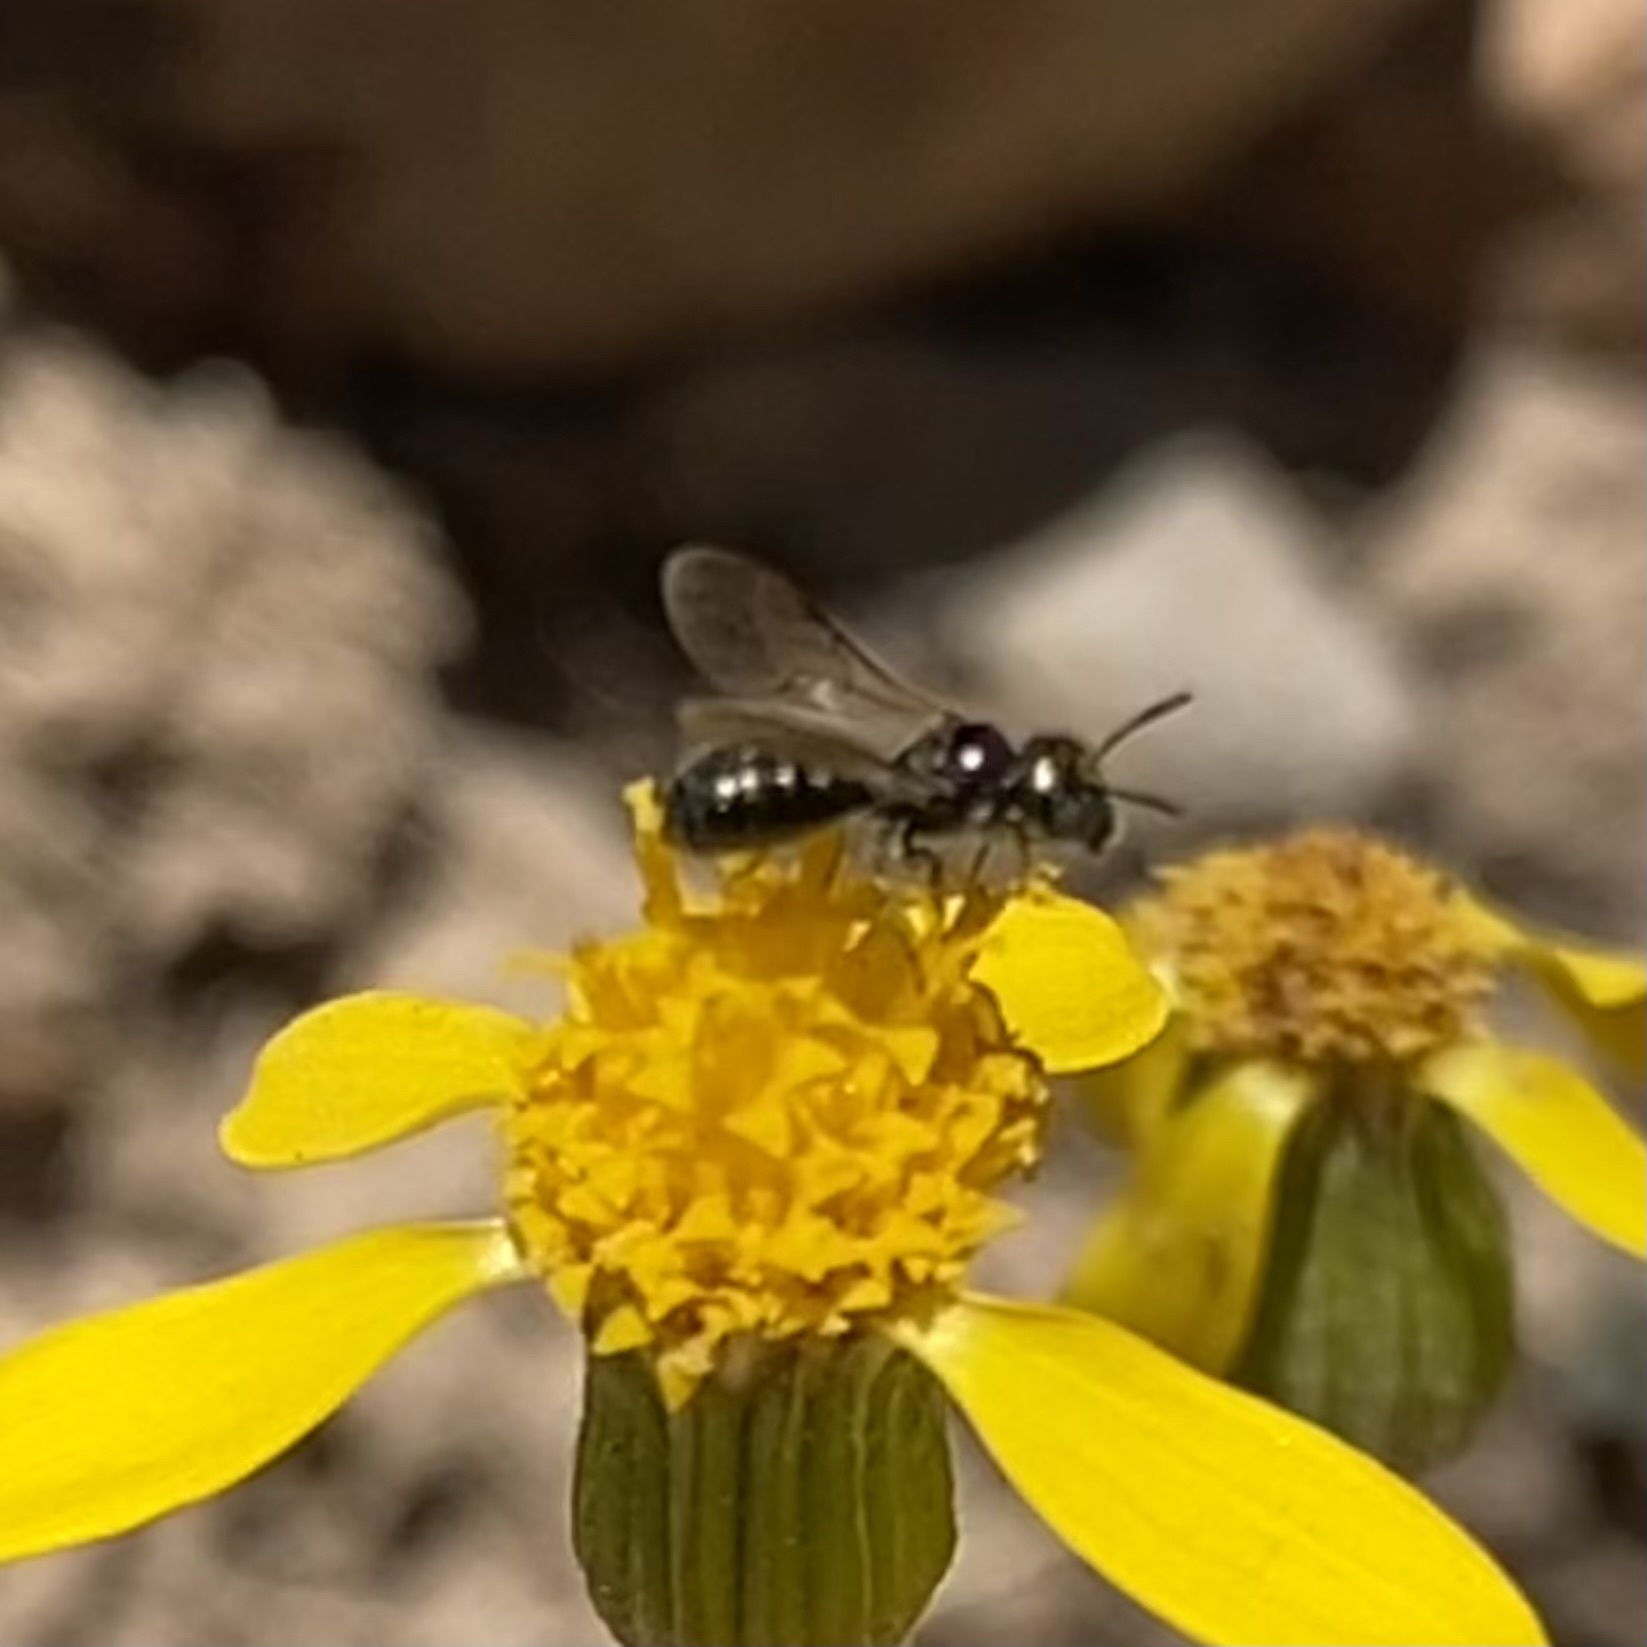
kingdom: Animalia
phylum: Arthropoda
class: Insecta
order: Hymenoptera
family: Apidae
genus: Zadontomerus
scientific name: Zadontomerus
